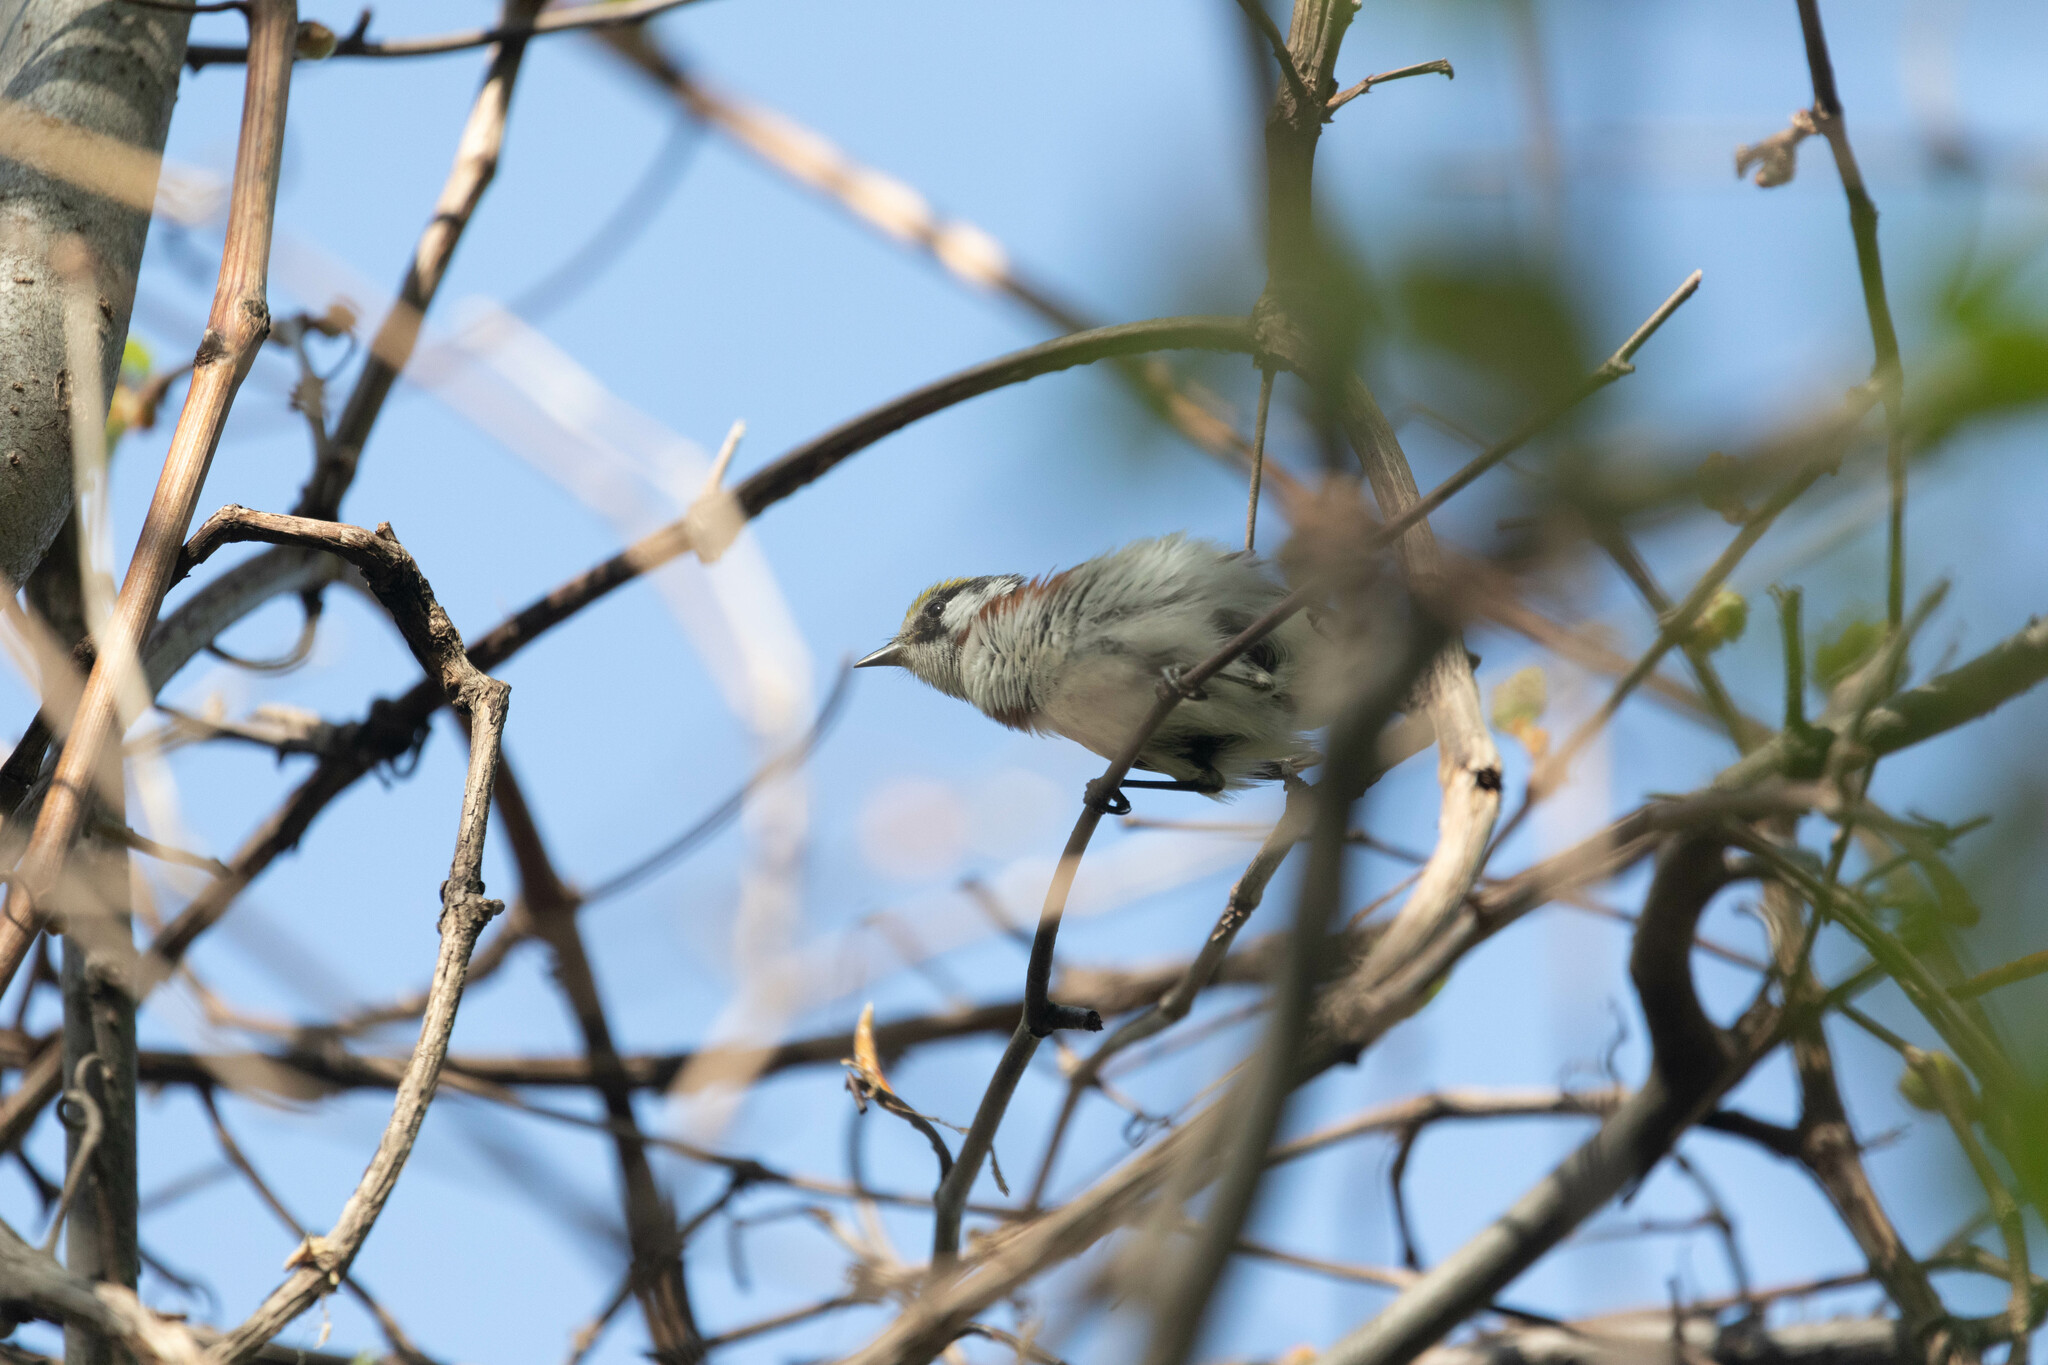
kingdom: Animalia
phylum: Chordata
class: Aves
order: Passeriformes
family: Parulidae
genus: Setophaga
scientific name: Setophaga pensylvanica
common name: Chestnut-sided warbler
